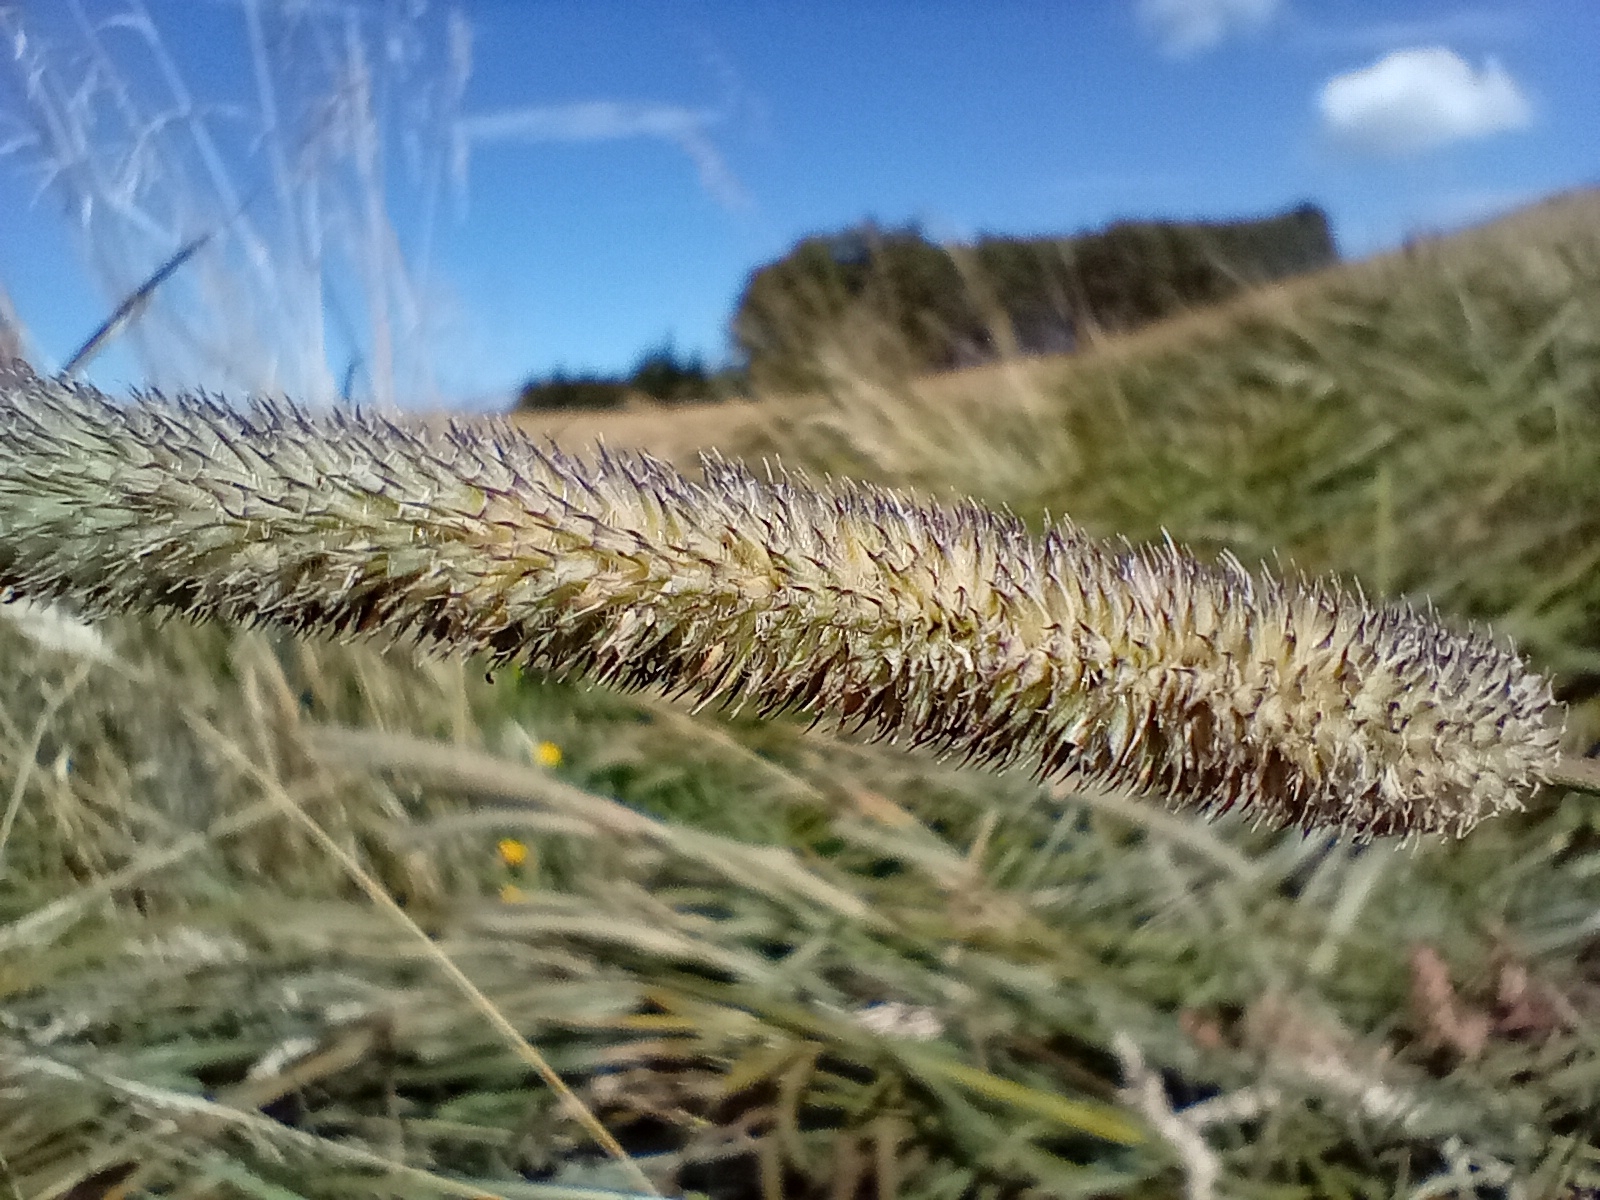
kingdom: Plantae
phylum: Tracheophyta
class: Liliopsida
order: Poales
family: Poaceae
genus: Phleum
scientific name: Phleum pratense
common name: Timothy grass
